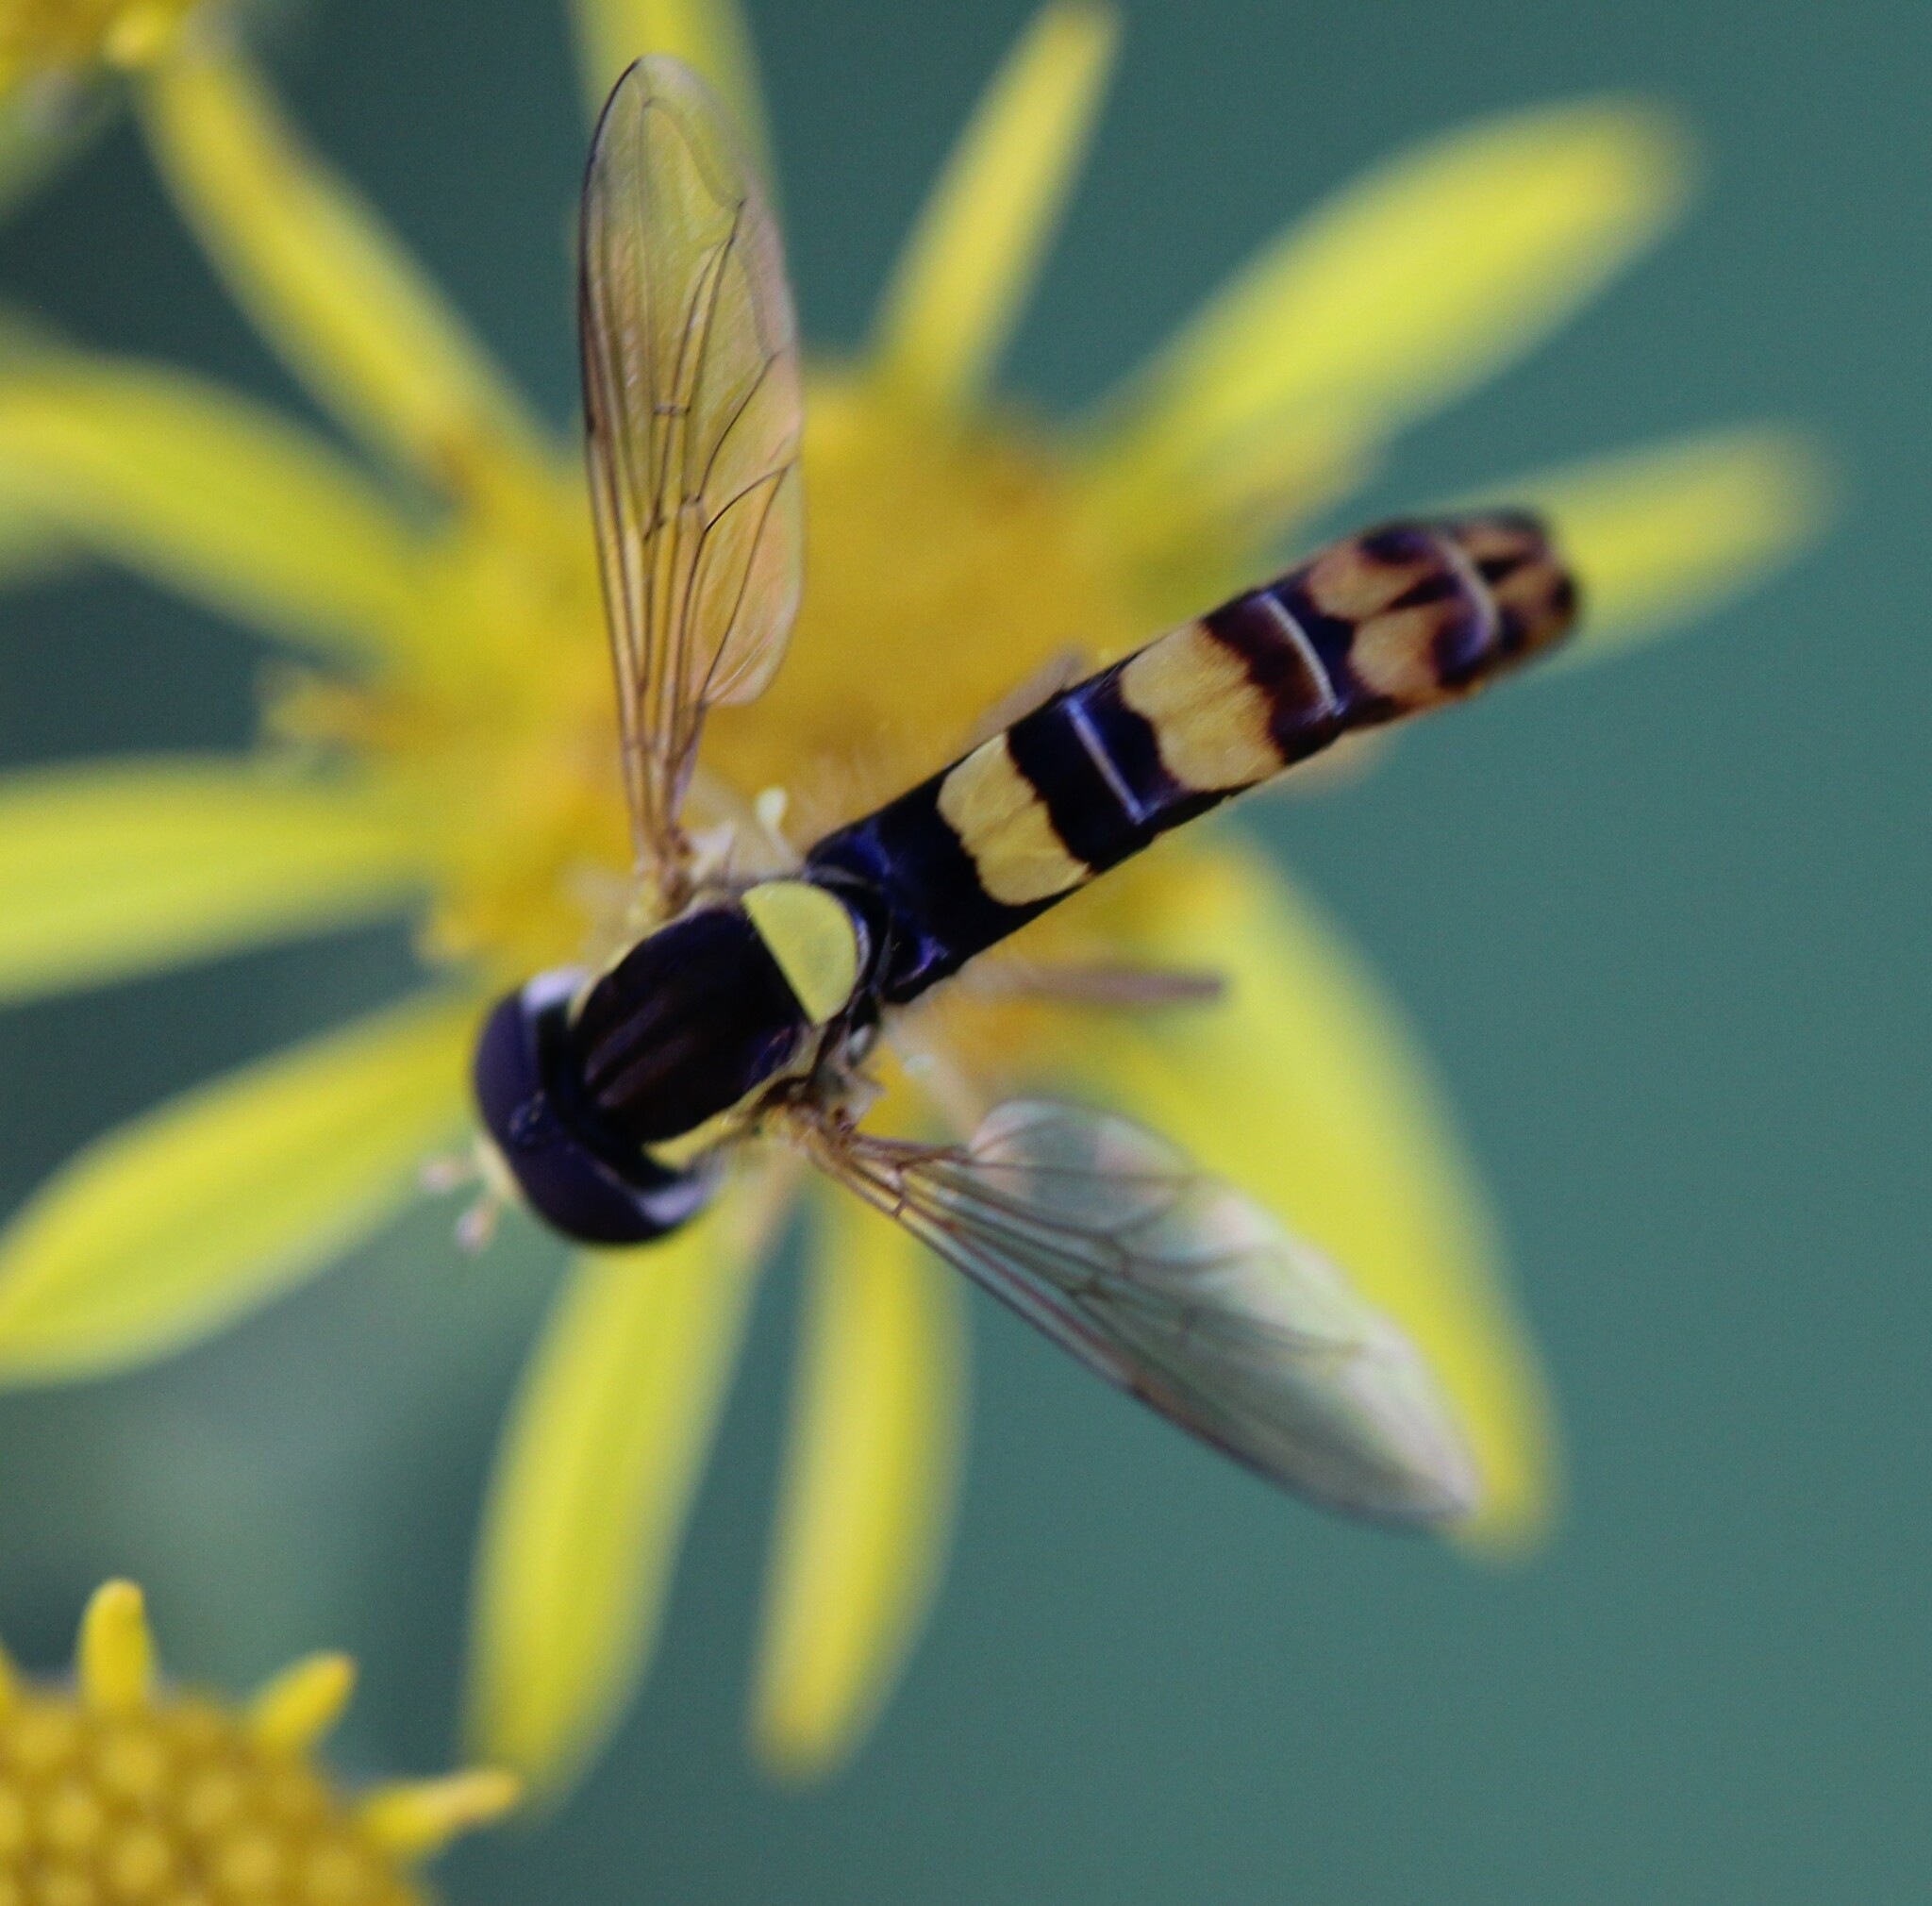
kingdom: Animalia
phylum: Arthropoda
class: Insecta
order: Diptera
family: Syrphidae
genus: Sphaerophoria
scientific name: Sphaerophoria scripta
